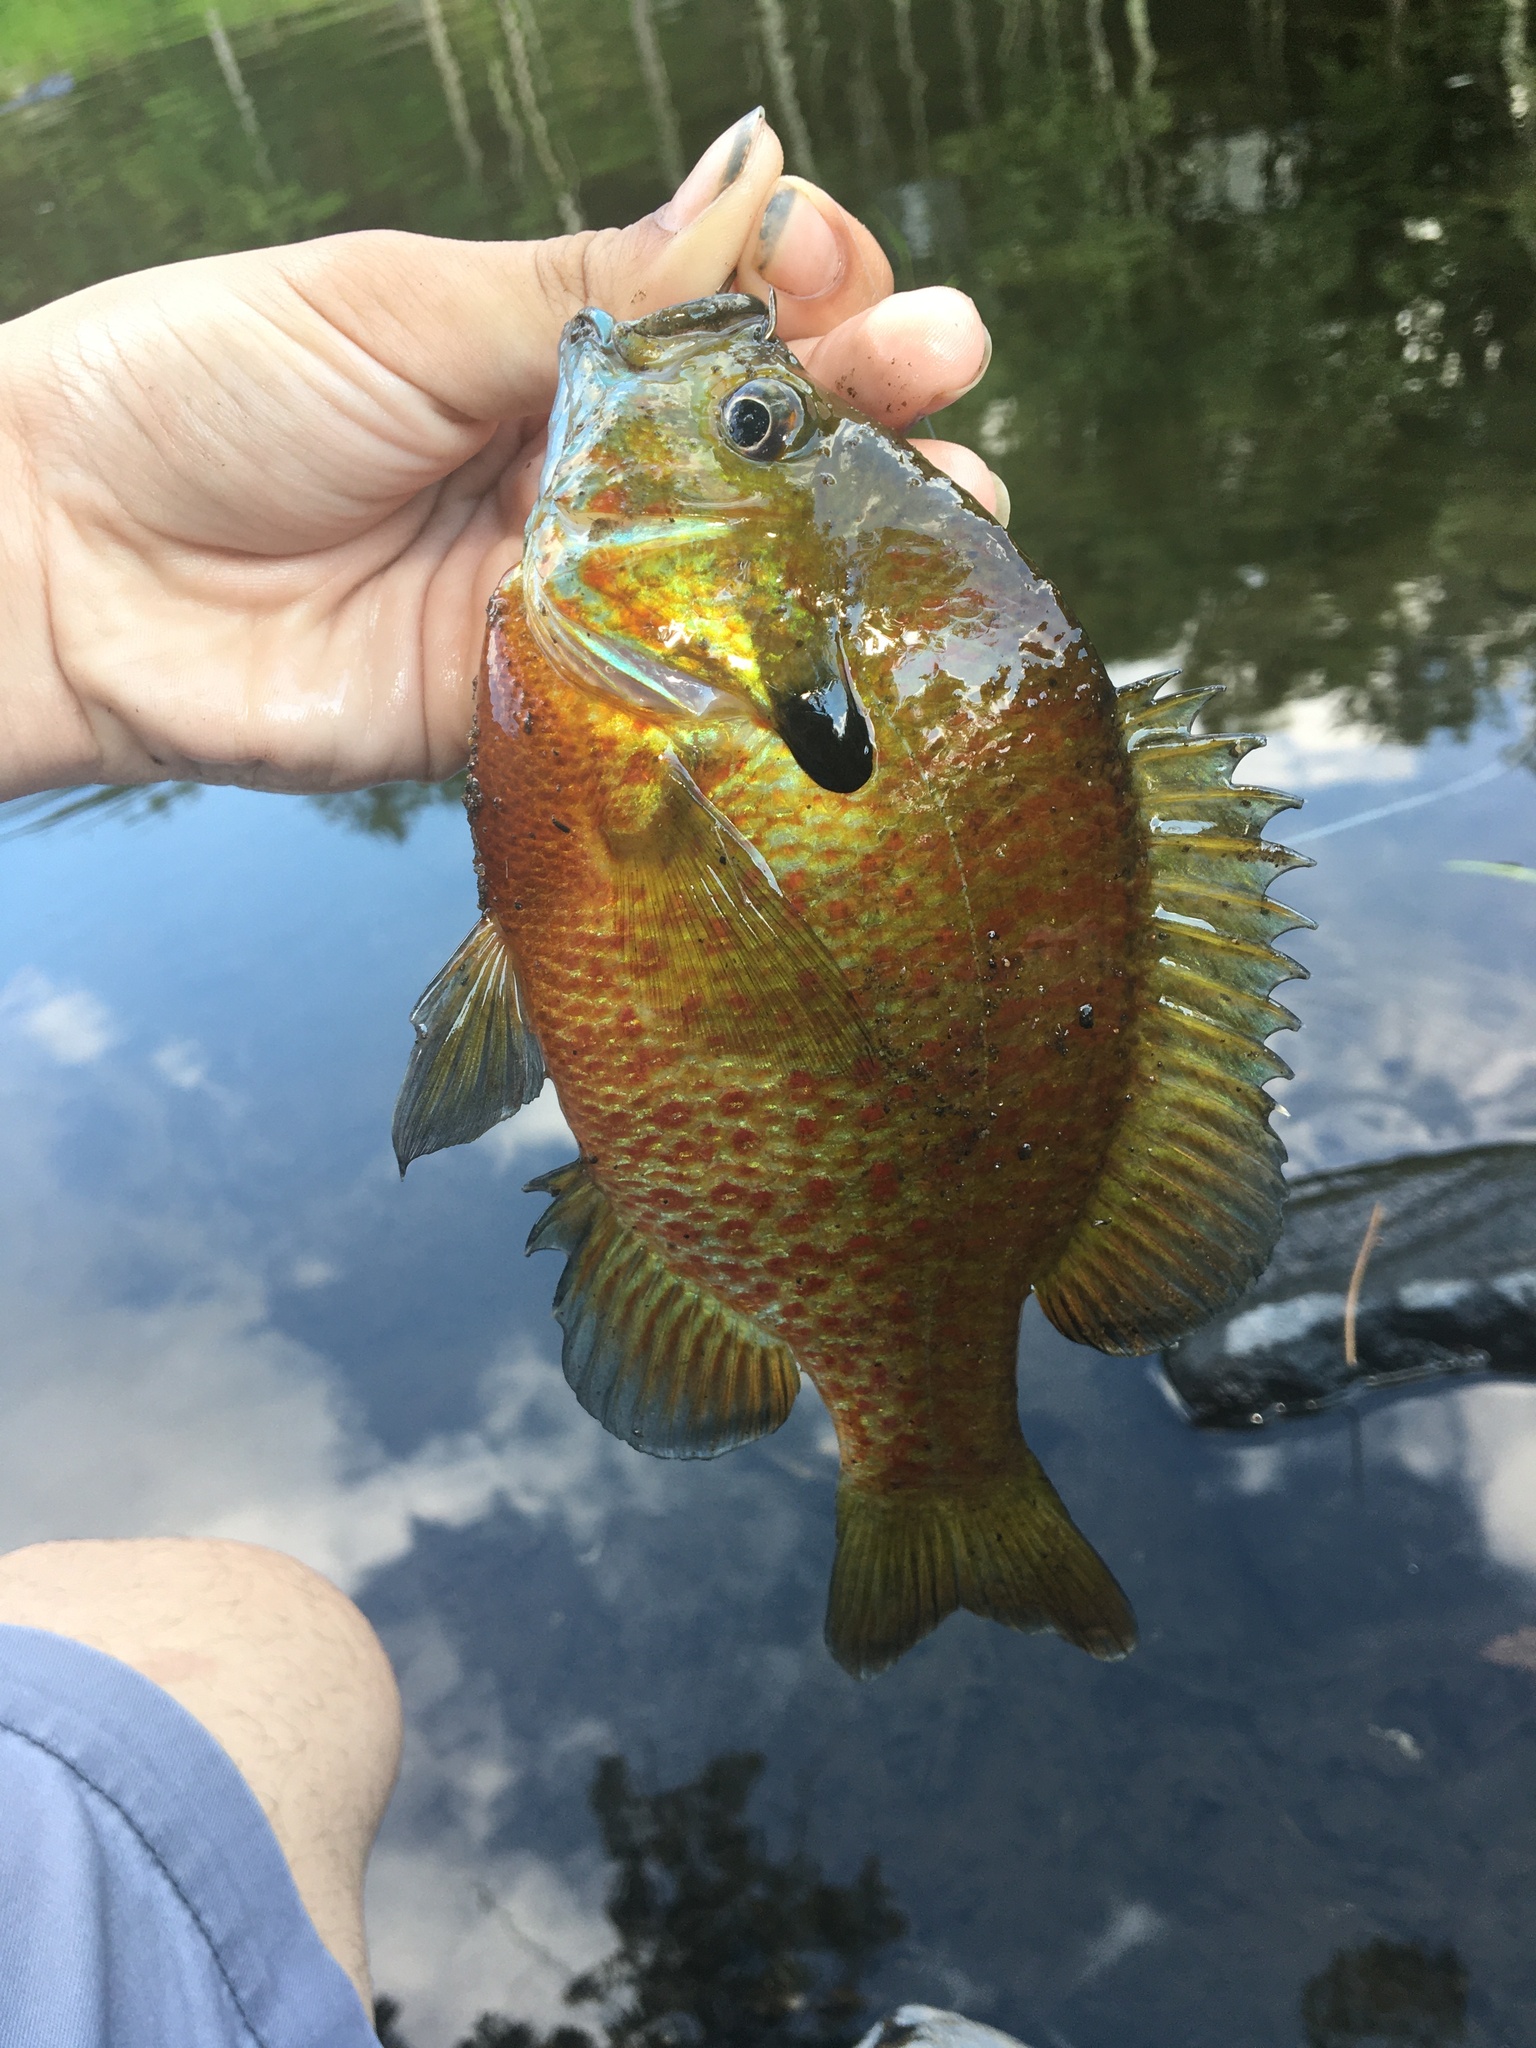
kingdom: Animalia
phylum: Chordata
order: Perciformes
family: Centrarchidae
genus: Lepomis
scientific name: Lepomis
